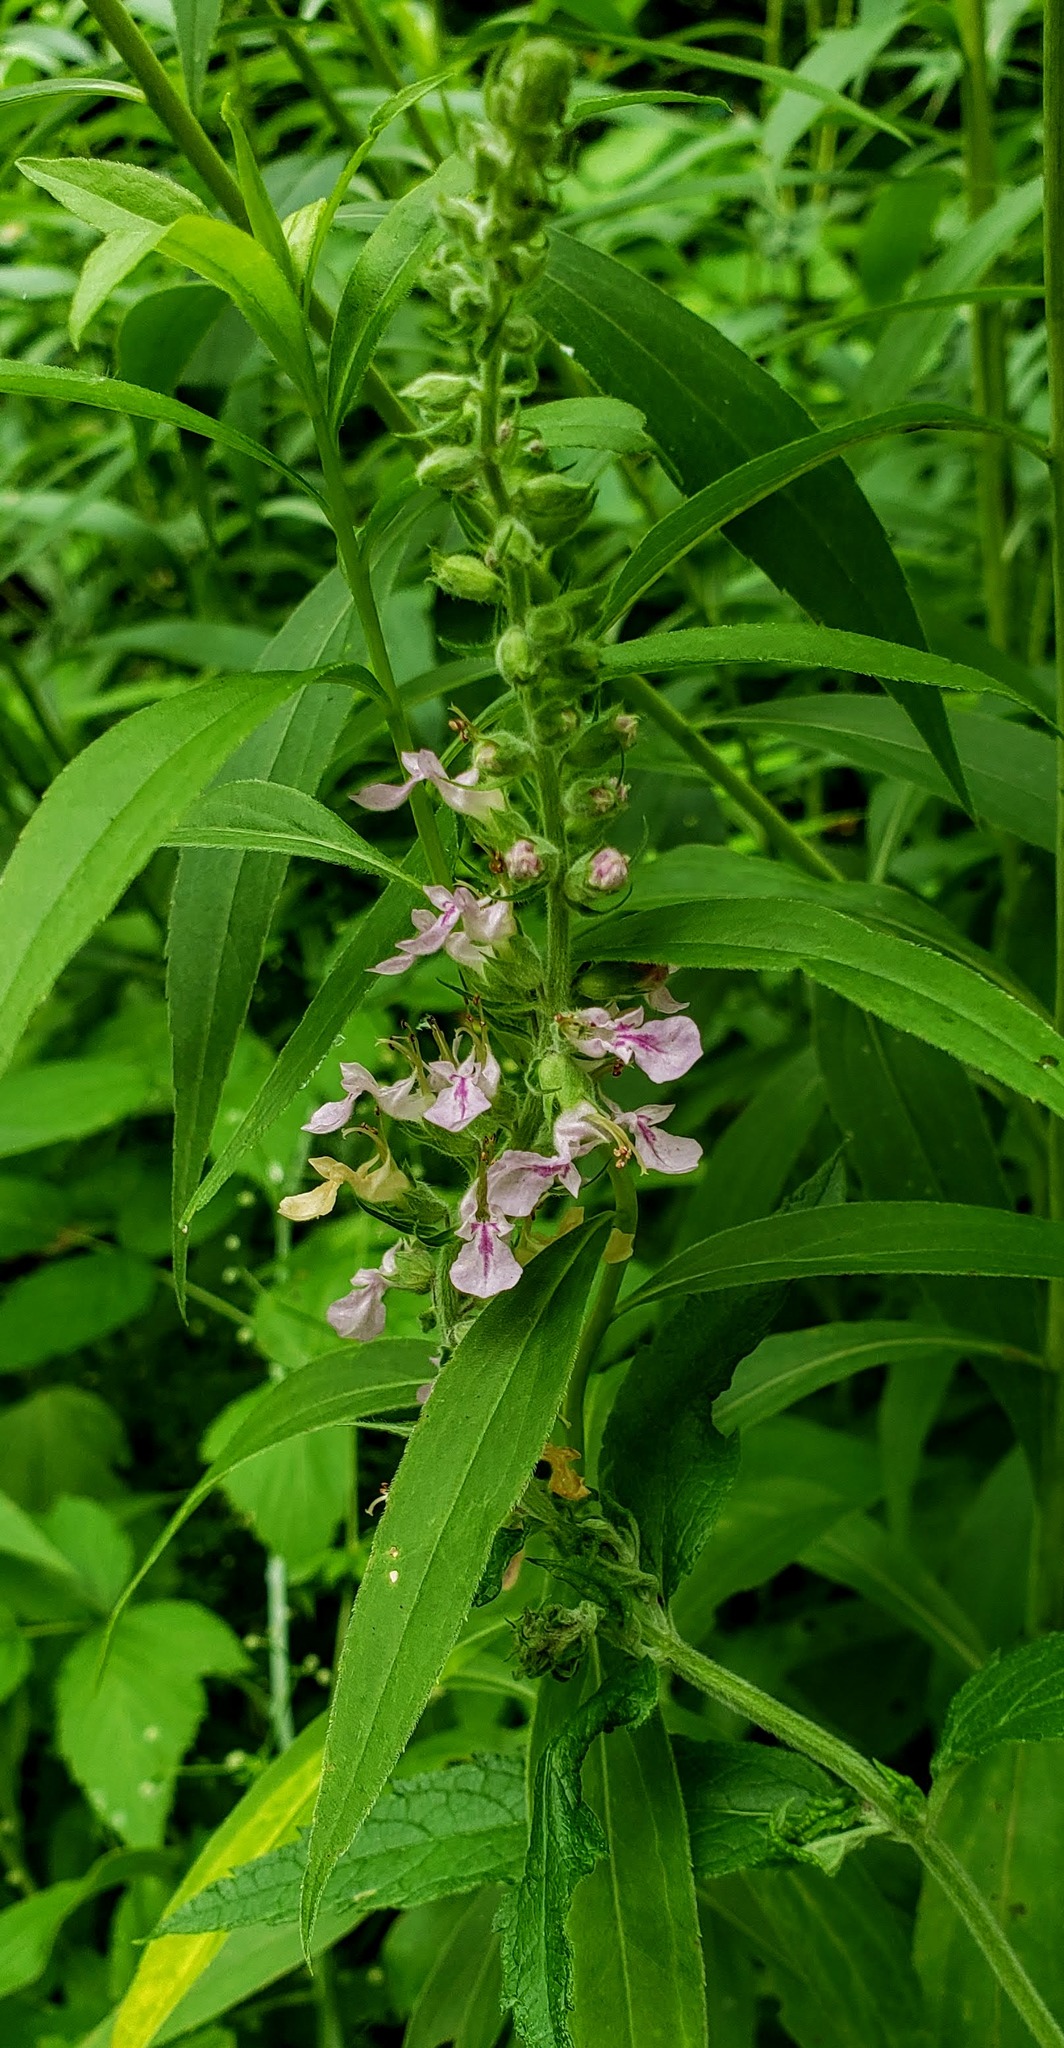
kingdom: Plantae
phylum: Tracheophyta
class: Magnoliopsida
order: Lamiales
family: Lamiaceae
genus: Teucrium
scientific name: Teucrium canadense
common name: American germander
